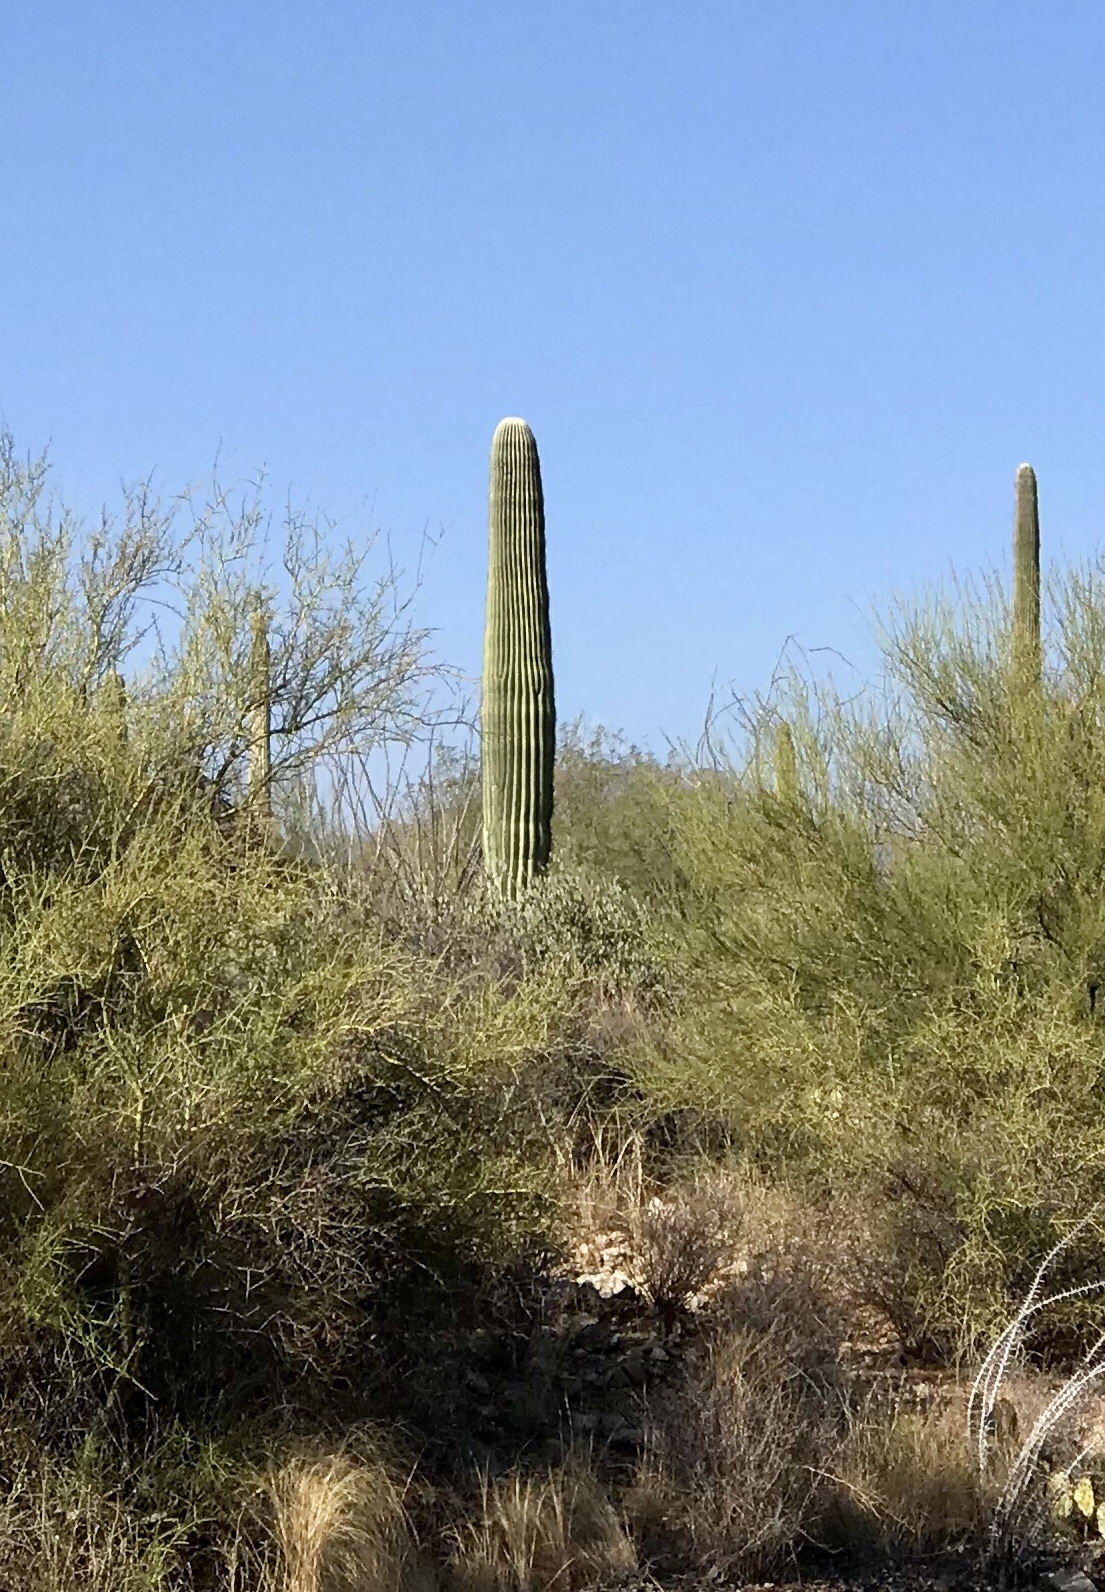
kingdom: Plantae
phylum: Tracheophyta
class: Magnoliopsida
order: Caryophyllales
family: Cactaceae
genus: Carnegiea
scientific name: Carnegiea gigantea
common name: Saguaro
